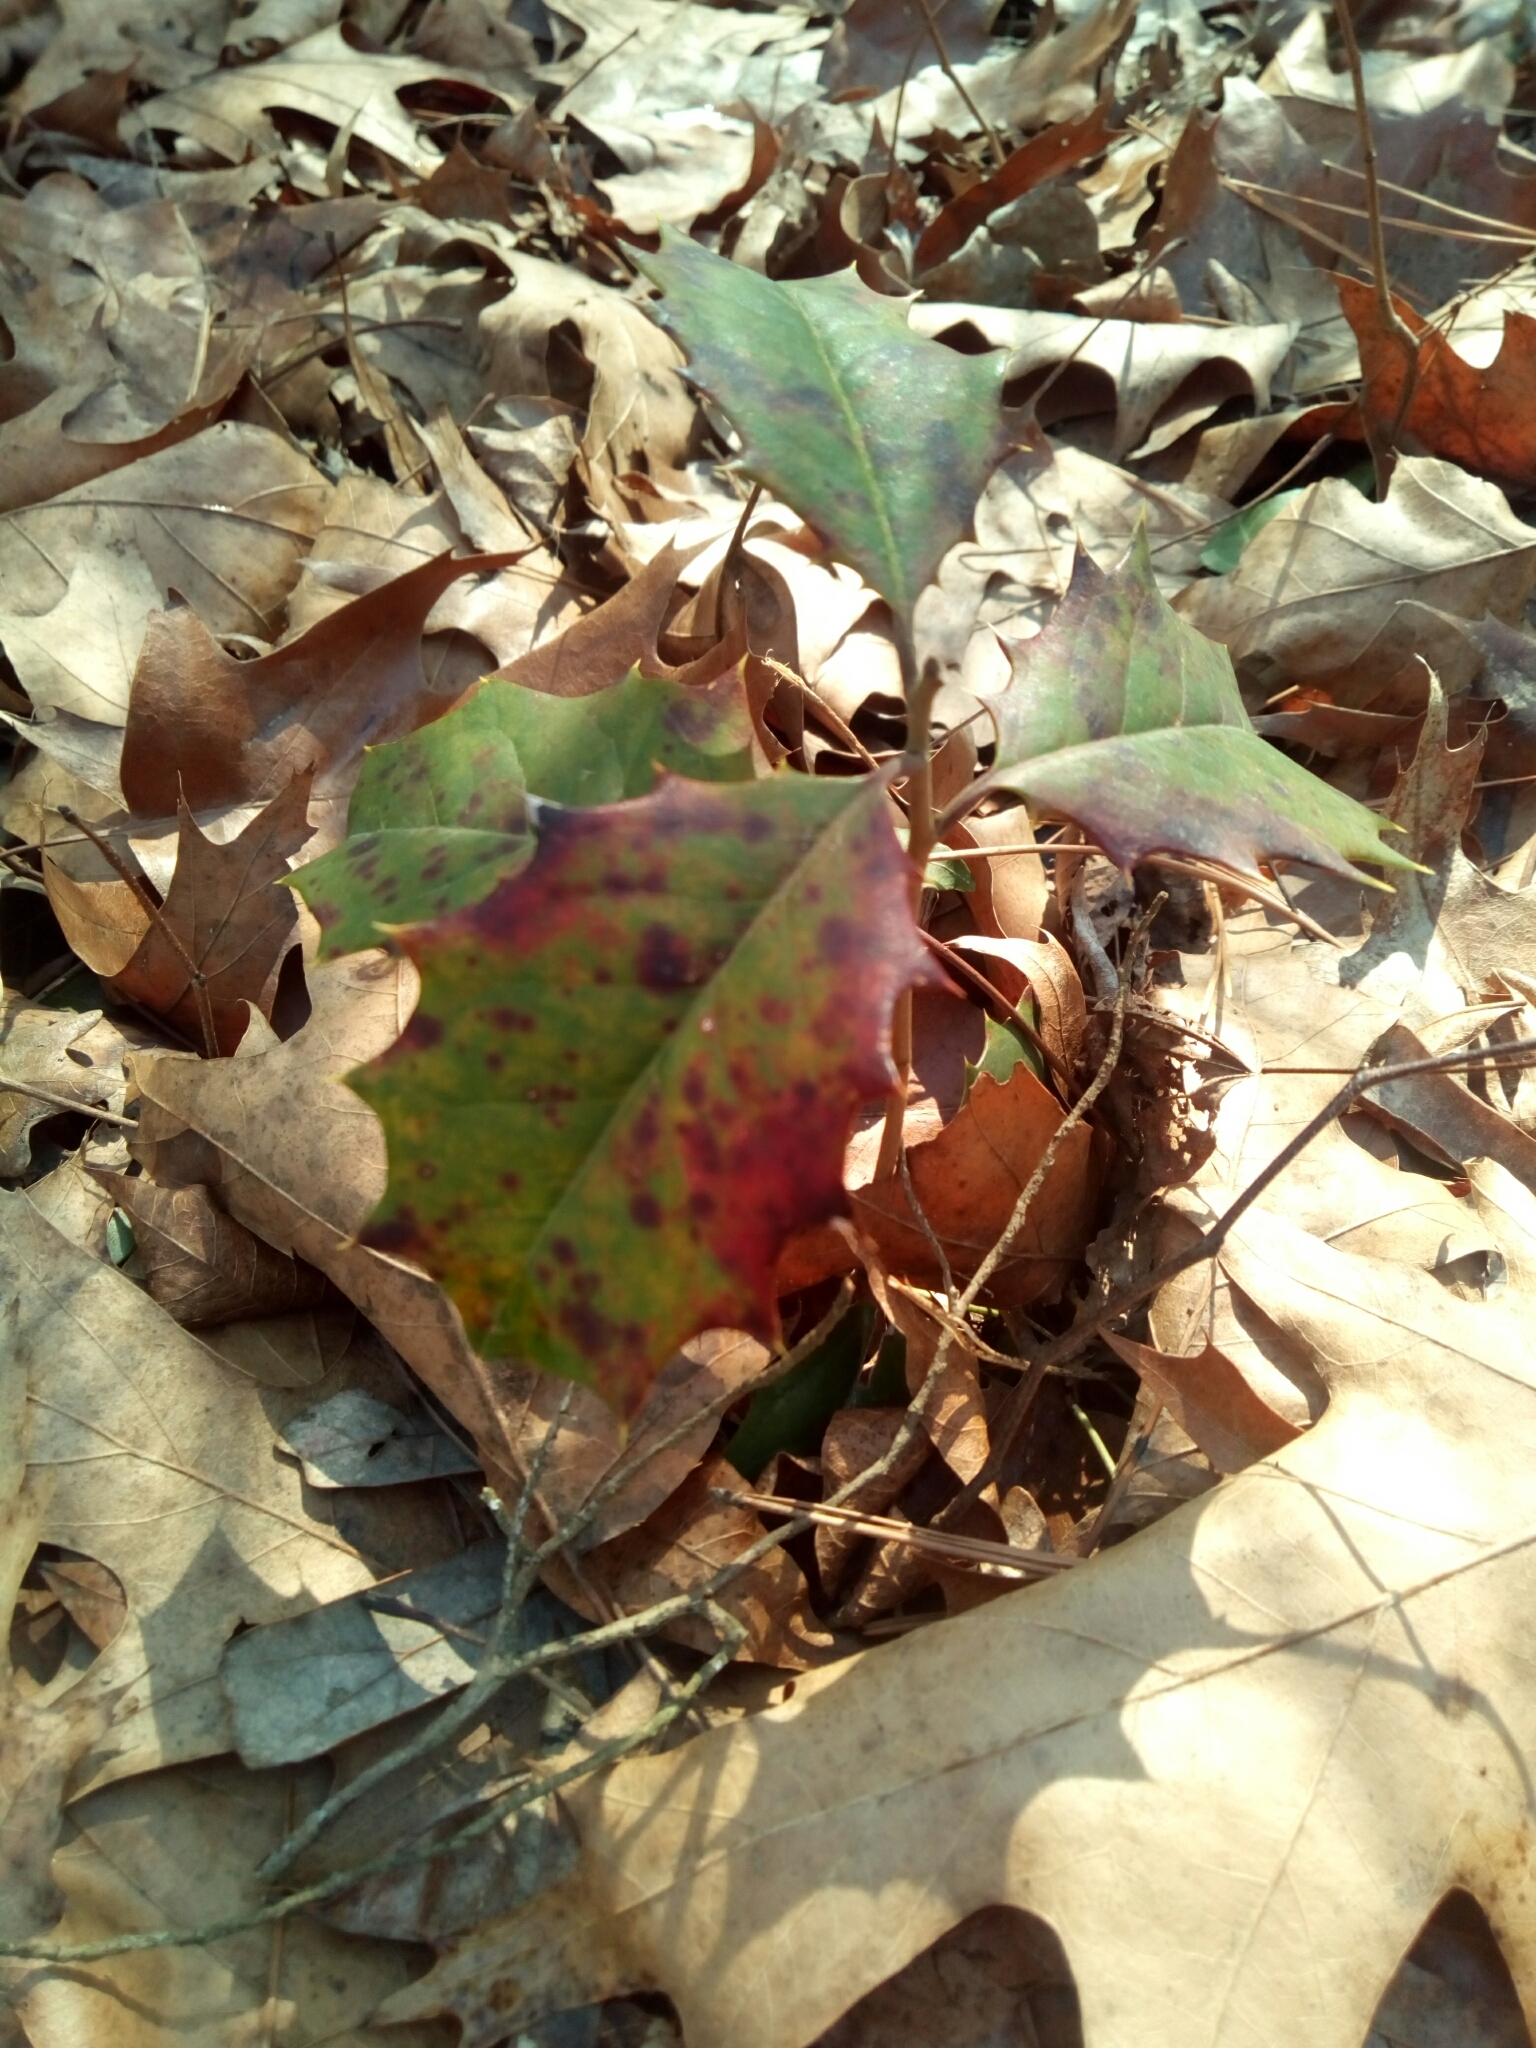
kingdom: Plantae
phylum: Tracheophyta
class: Magnoliopsida
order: Aquifoliales
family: Aquifoliaceae
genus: Ilex
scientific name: Ilex opaca
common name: American holly
